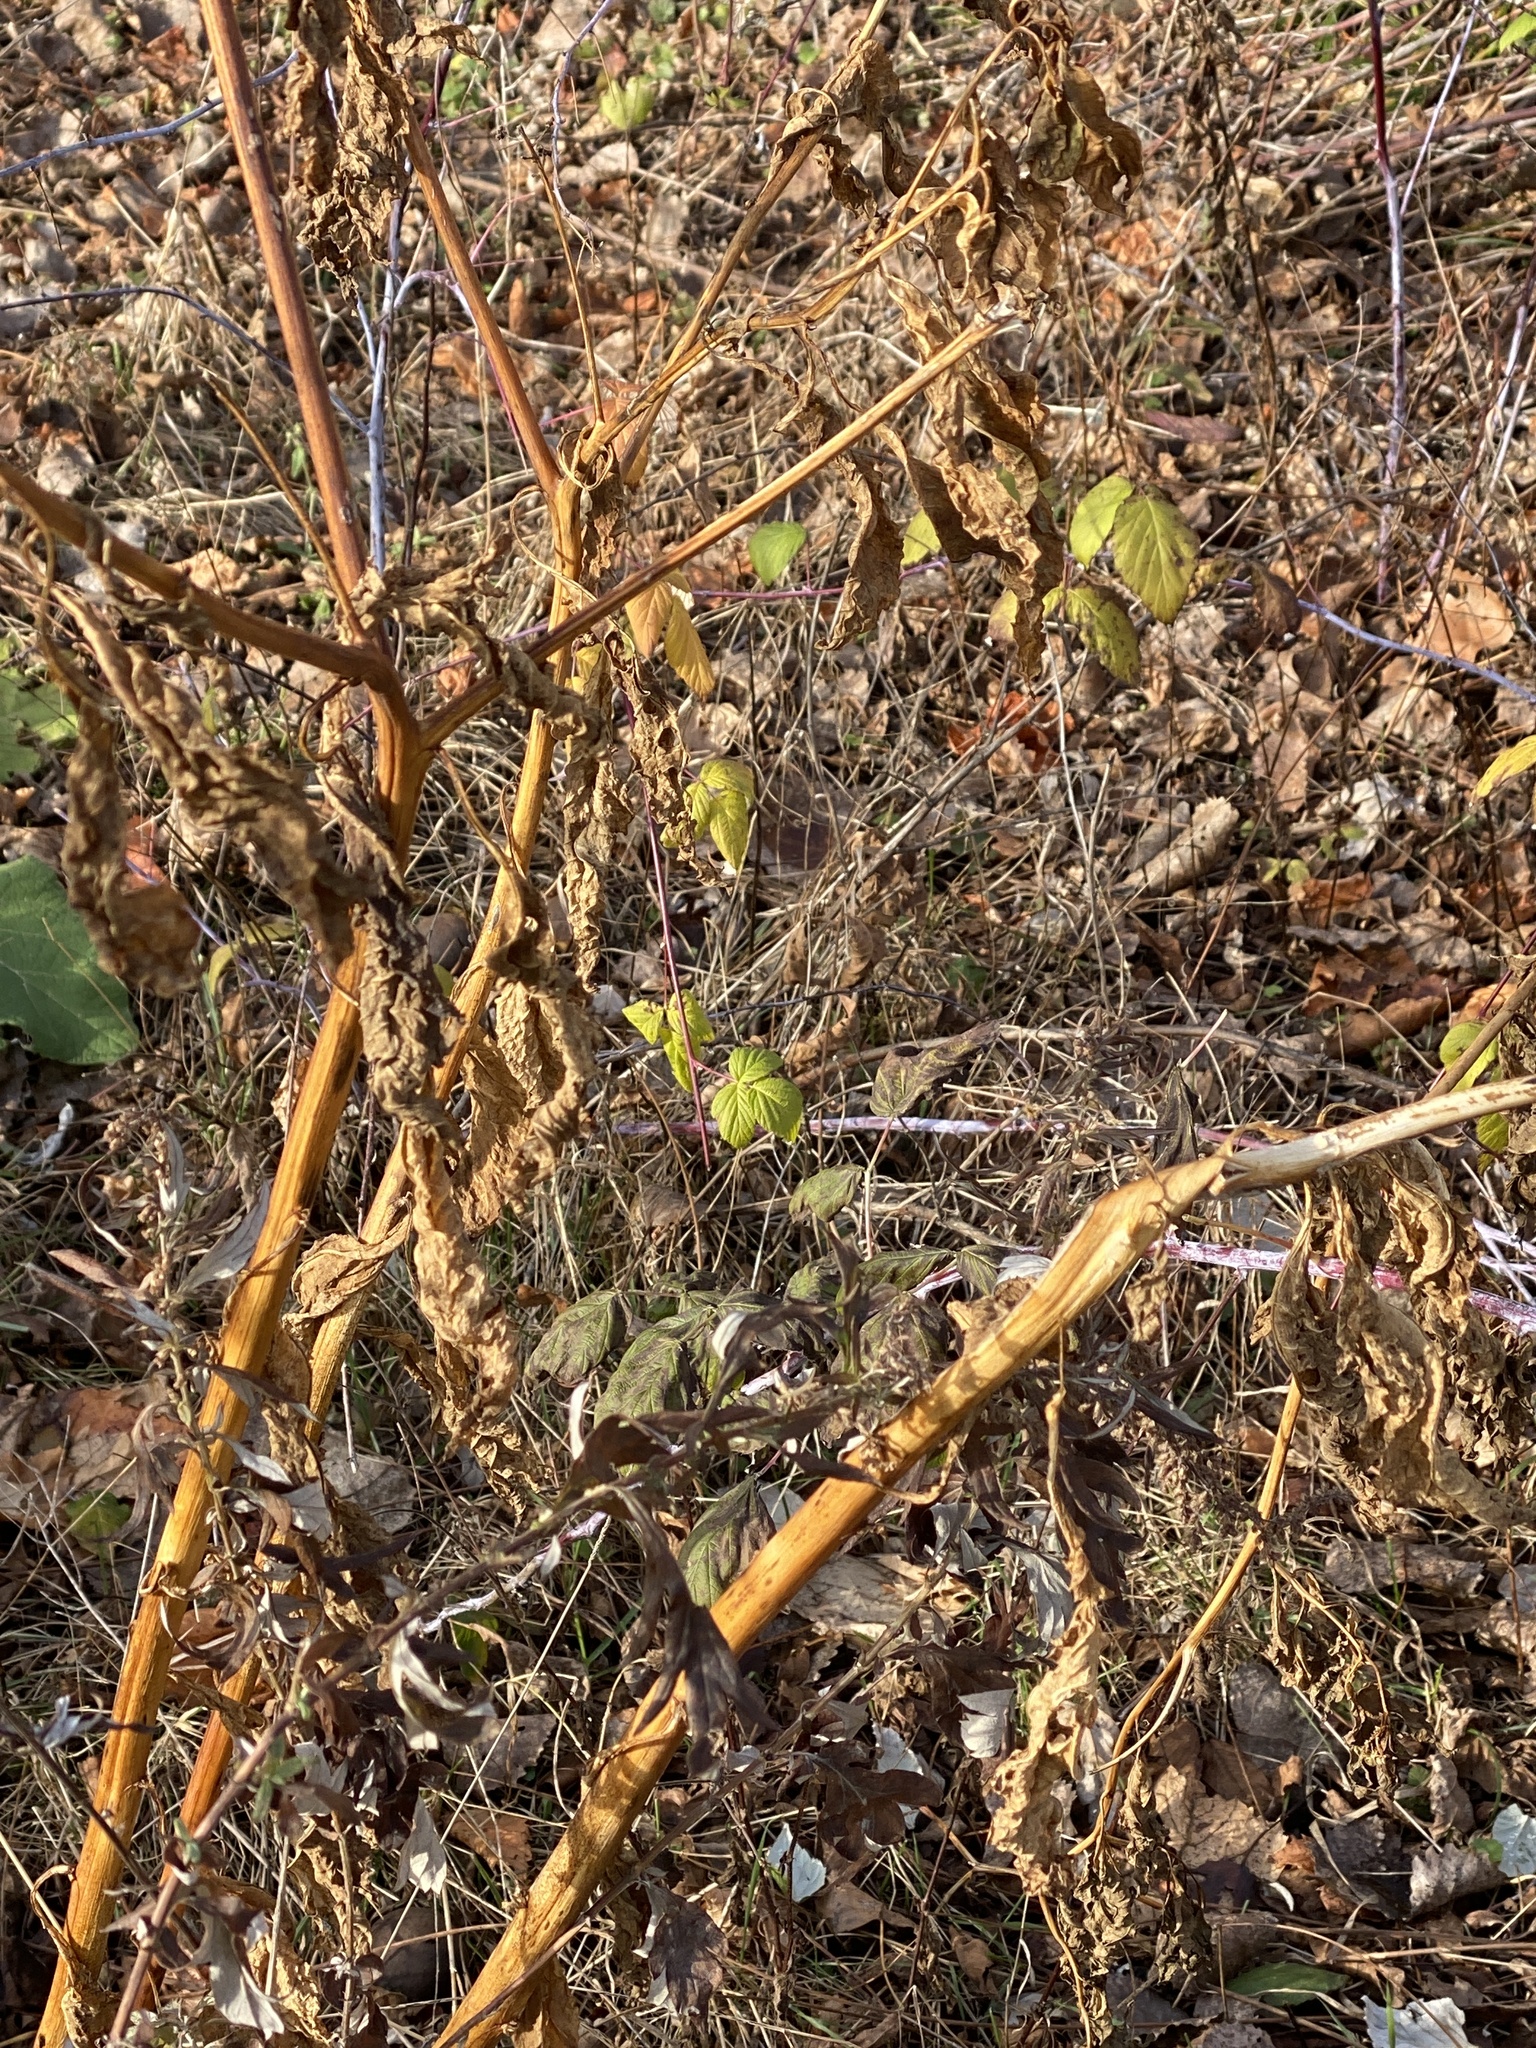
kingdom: Plantae
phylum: Tracheophyta
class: Magnoliopsida
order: Caryophyllales
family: Phytolaccaceae
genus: Phytolacca
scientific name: Phytolacca americana
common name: American pokeweed
